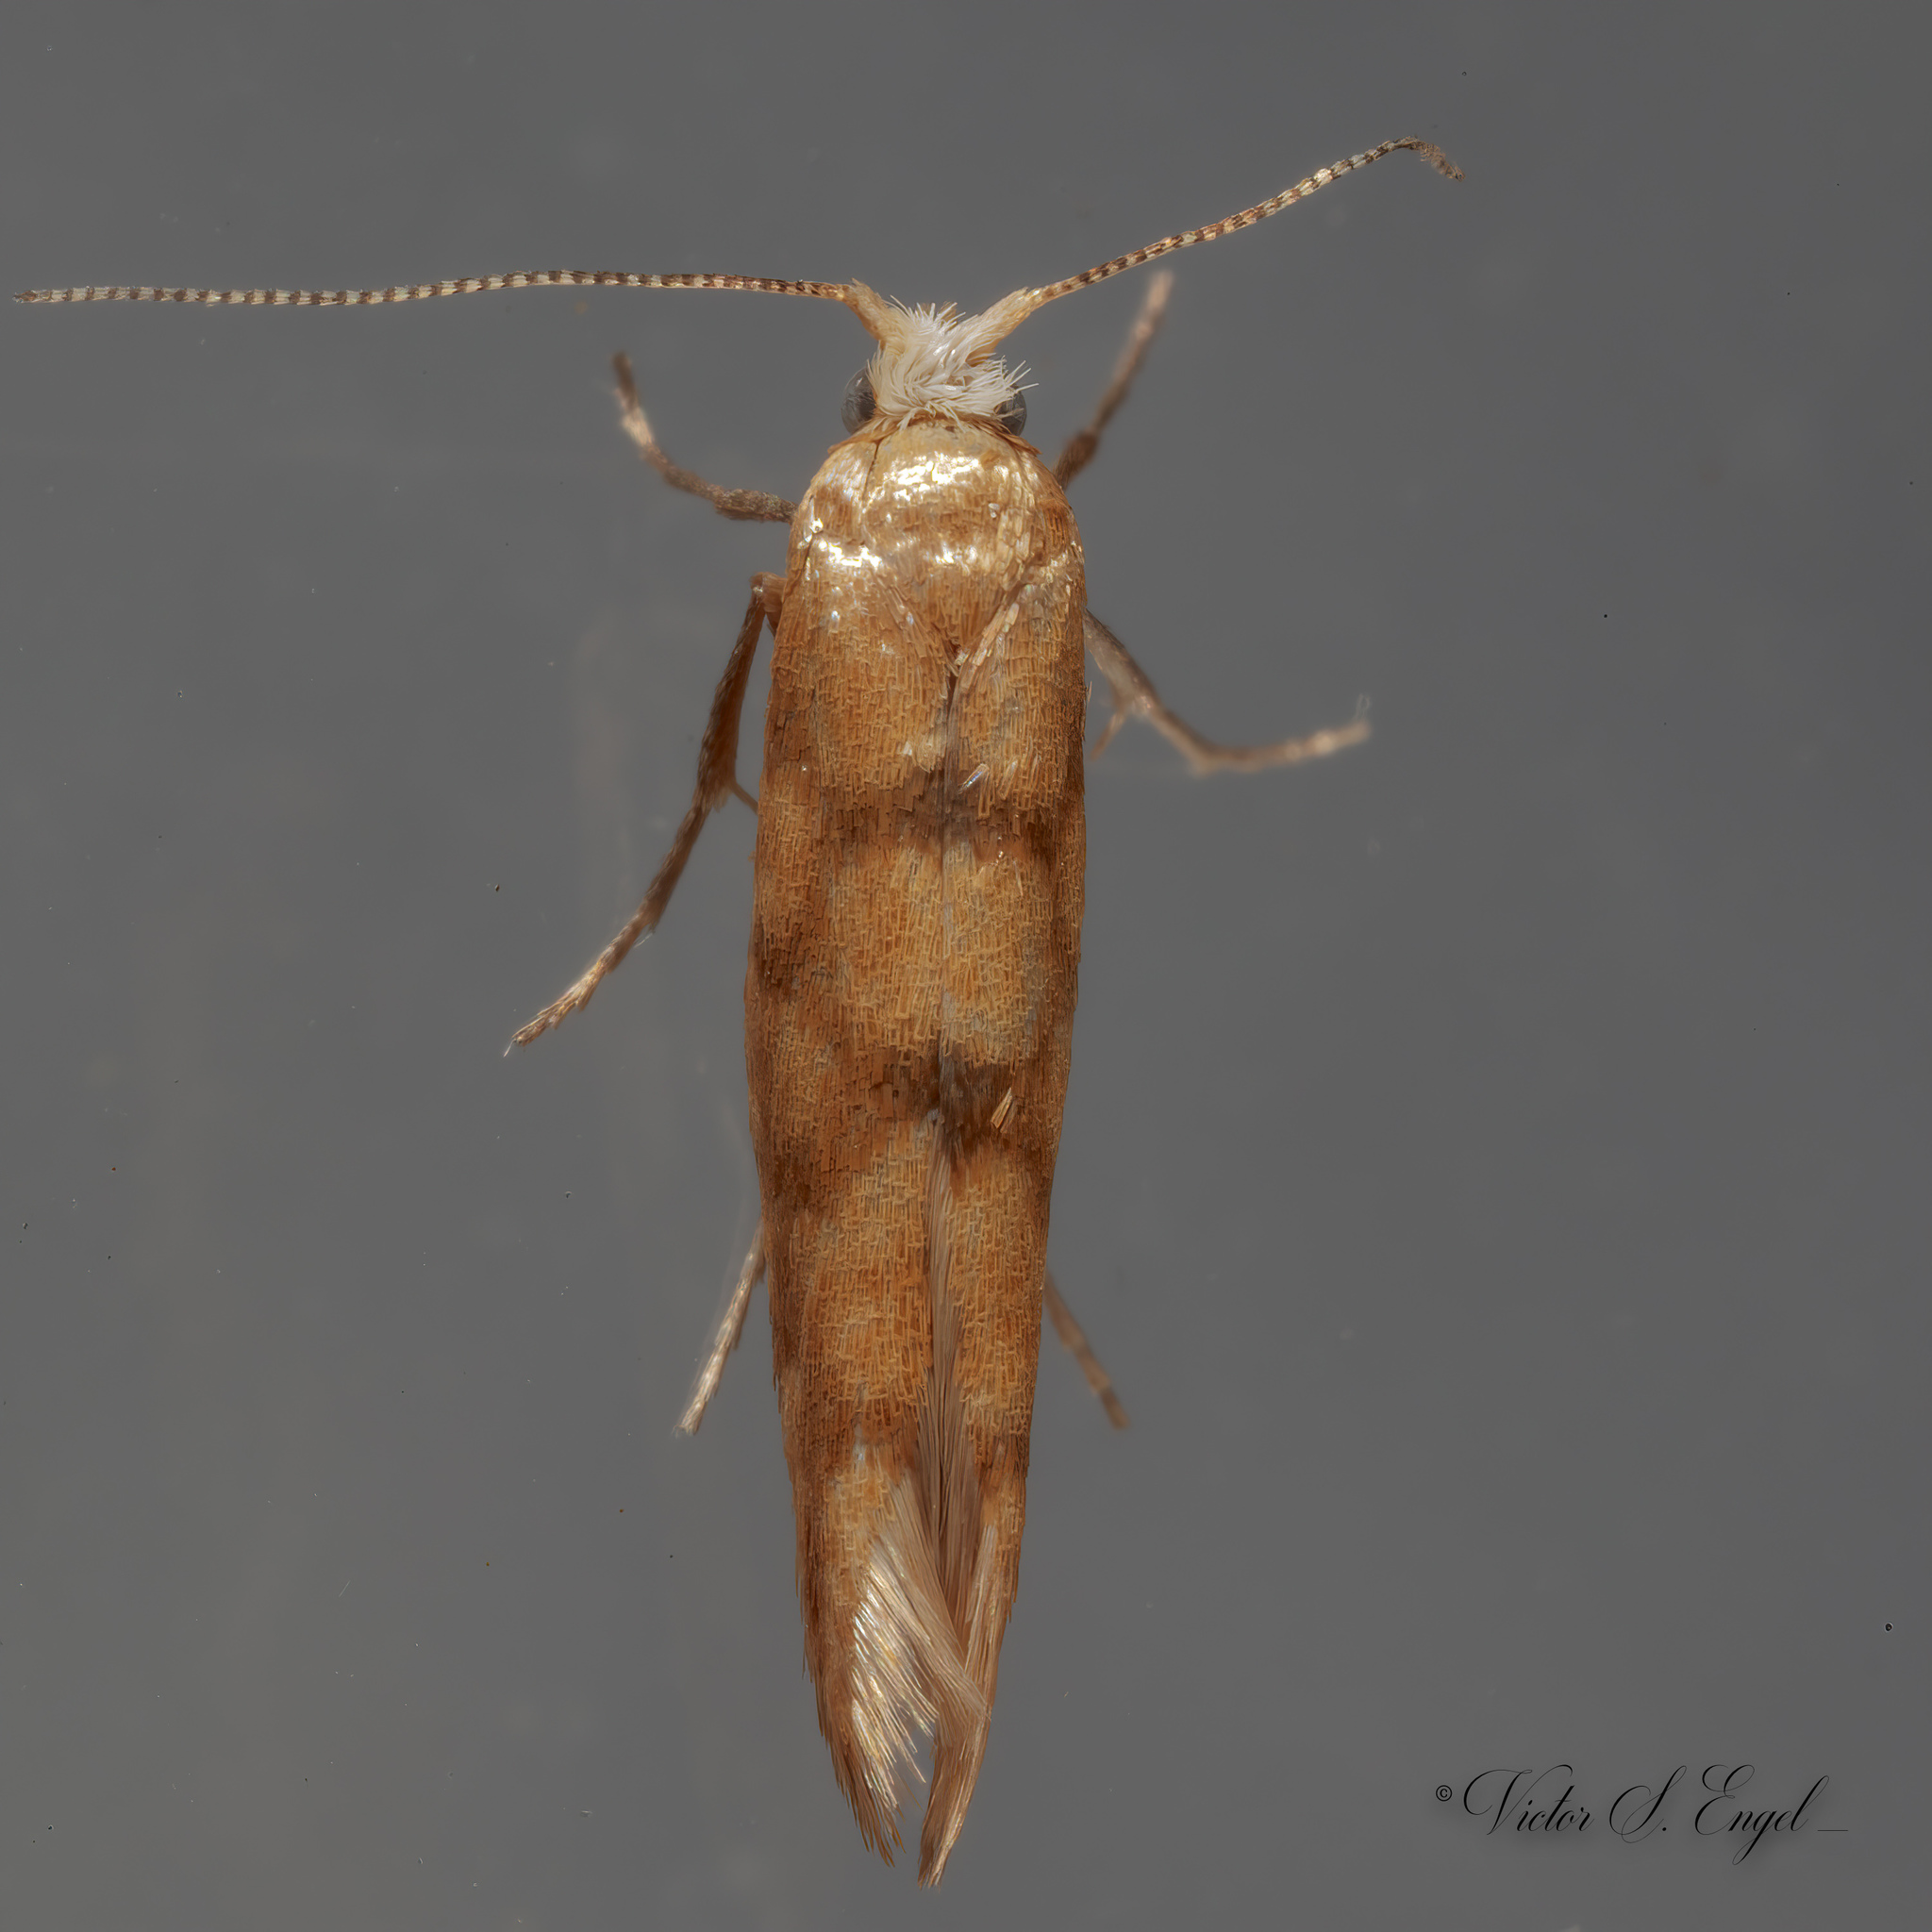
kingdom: Animalia
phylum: Arthropoda
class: Insecta
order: Lepidoptera
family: Argyresthiidae
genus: Argyresthia
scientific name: Argyresthia alternatella
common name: Juniper seed moth
